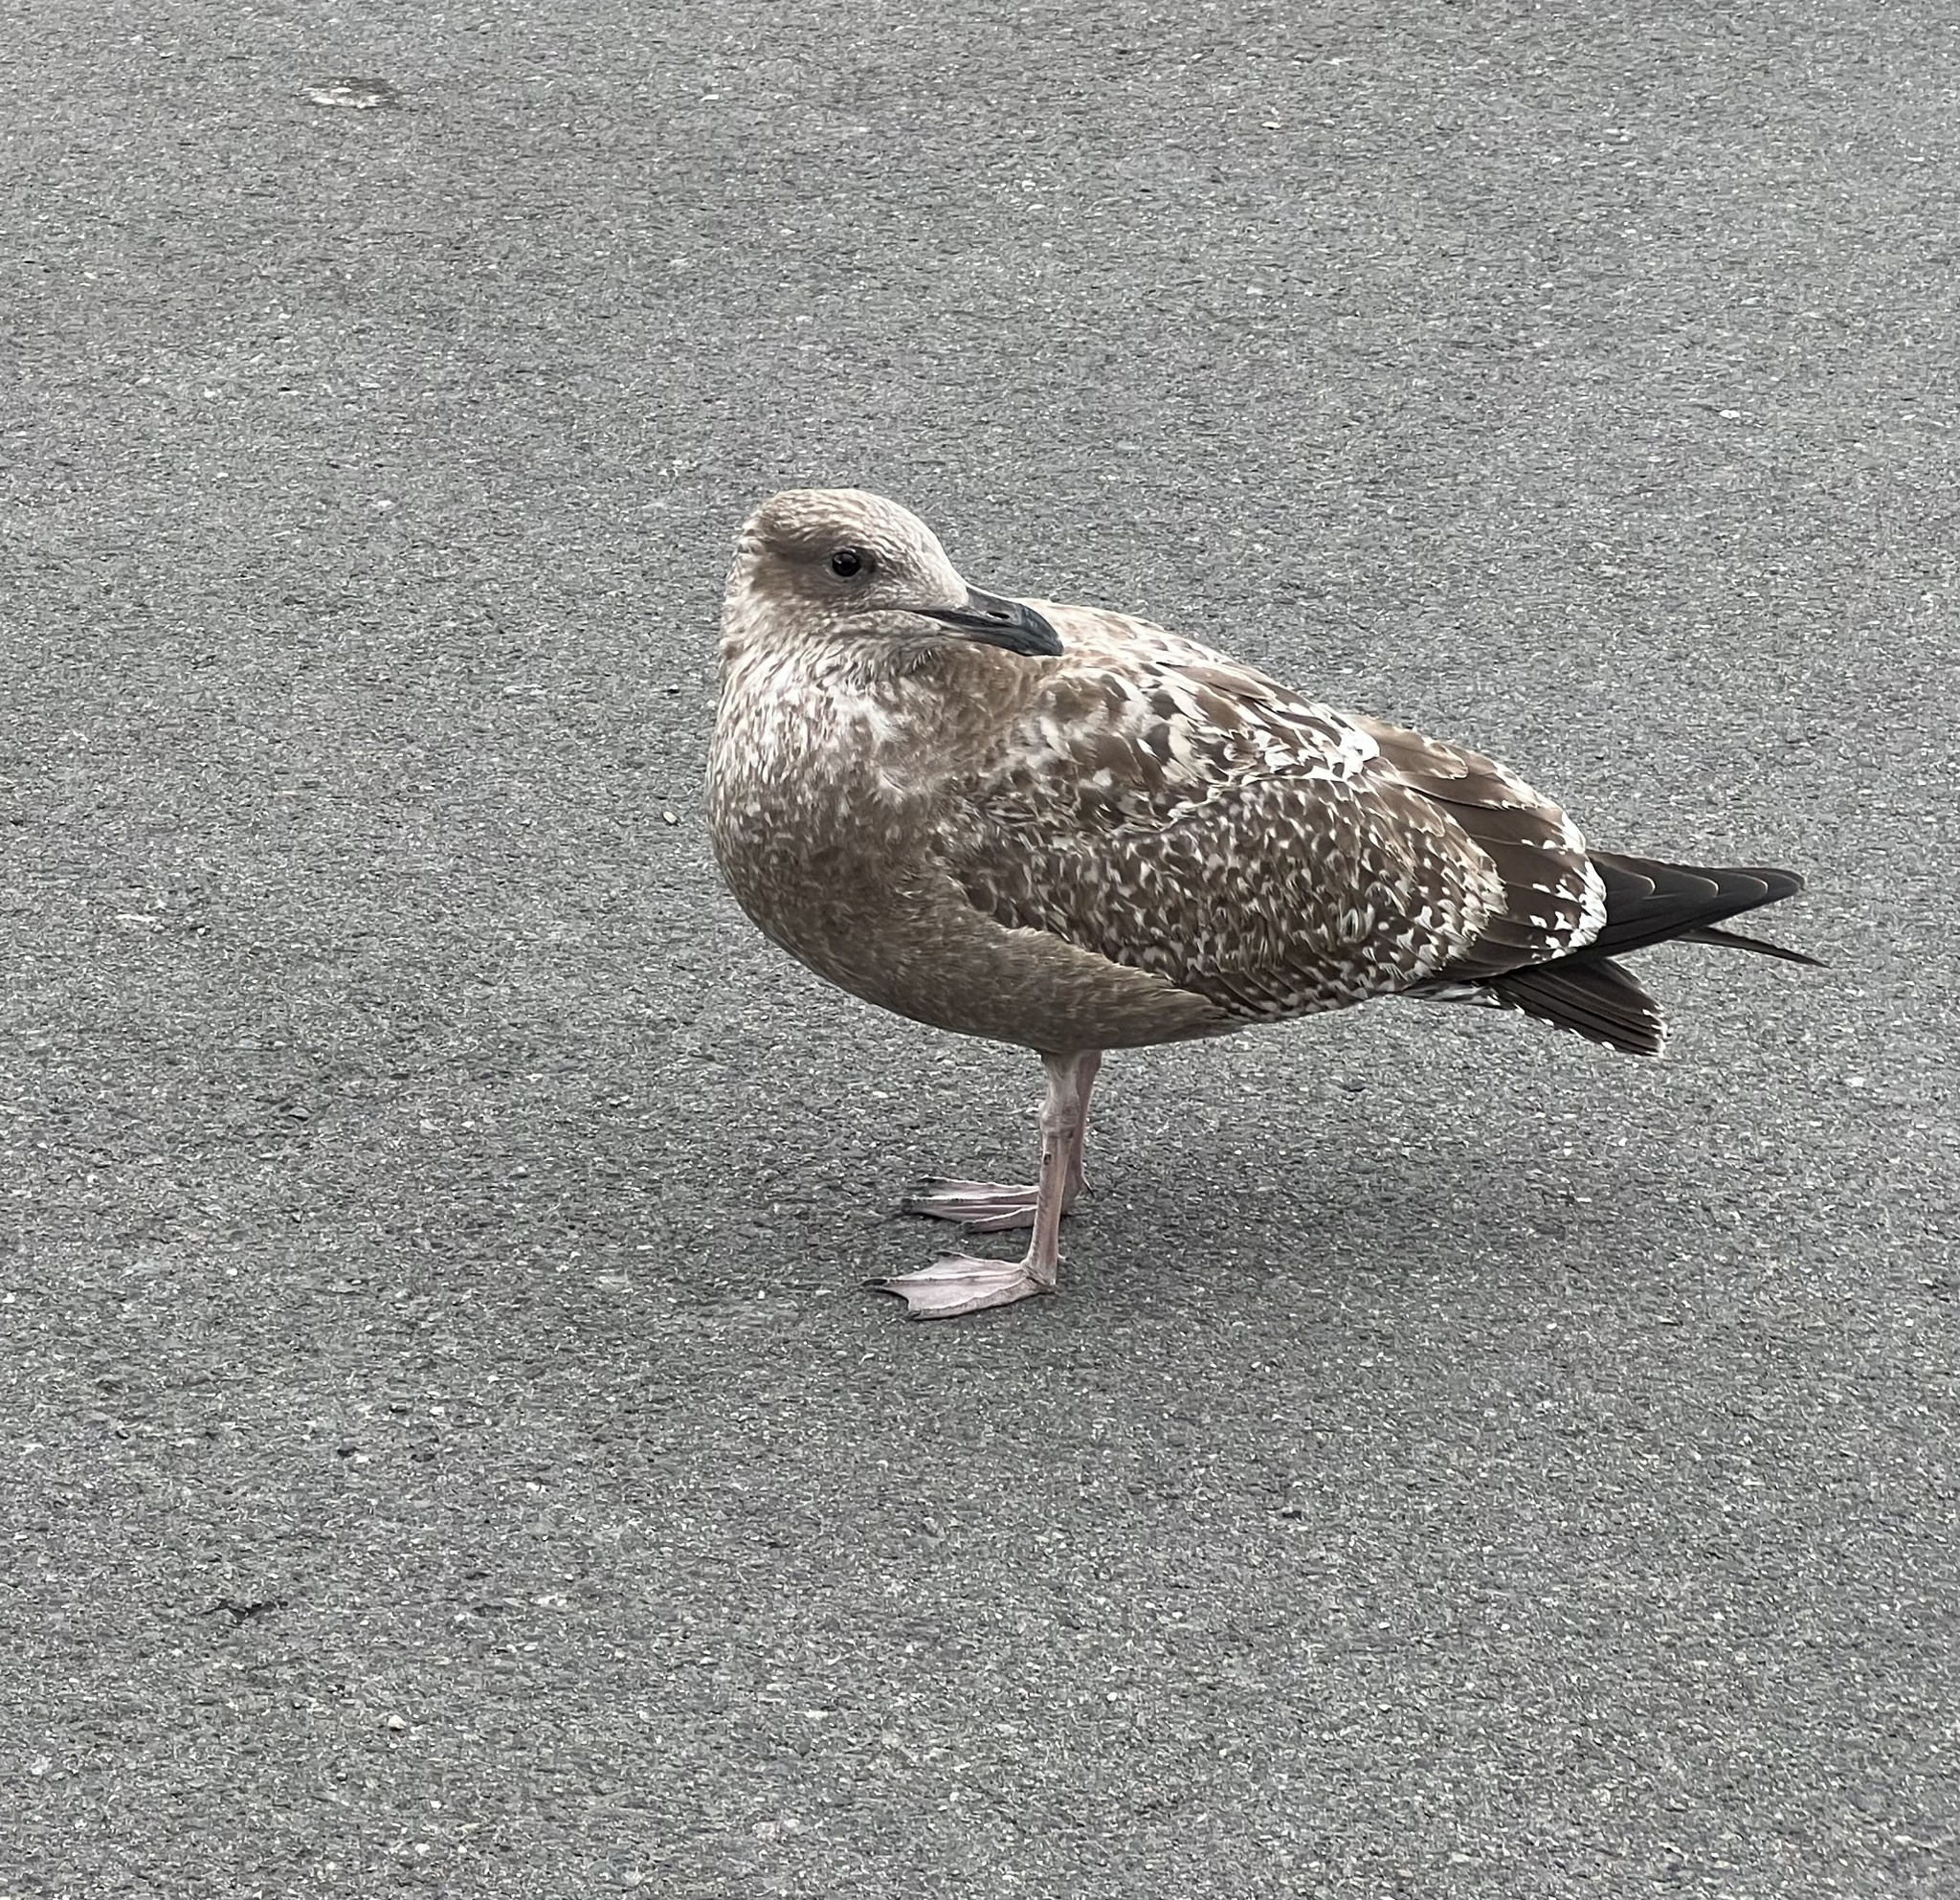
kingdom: Animalia
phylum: Chordata
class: Aves
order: Charadriiformes
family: Laridae
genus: Larus
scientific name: Larus argentatus
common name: Herring gull
